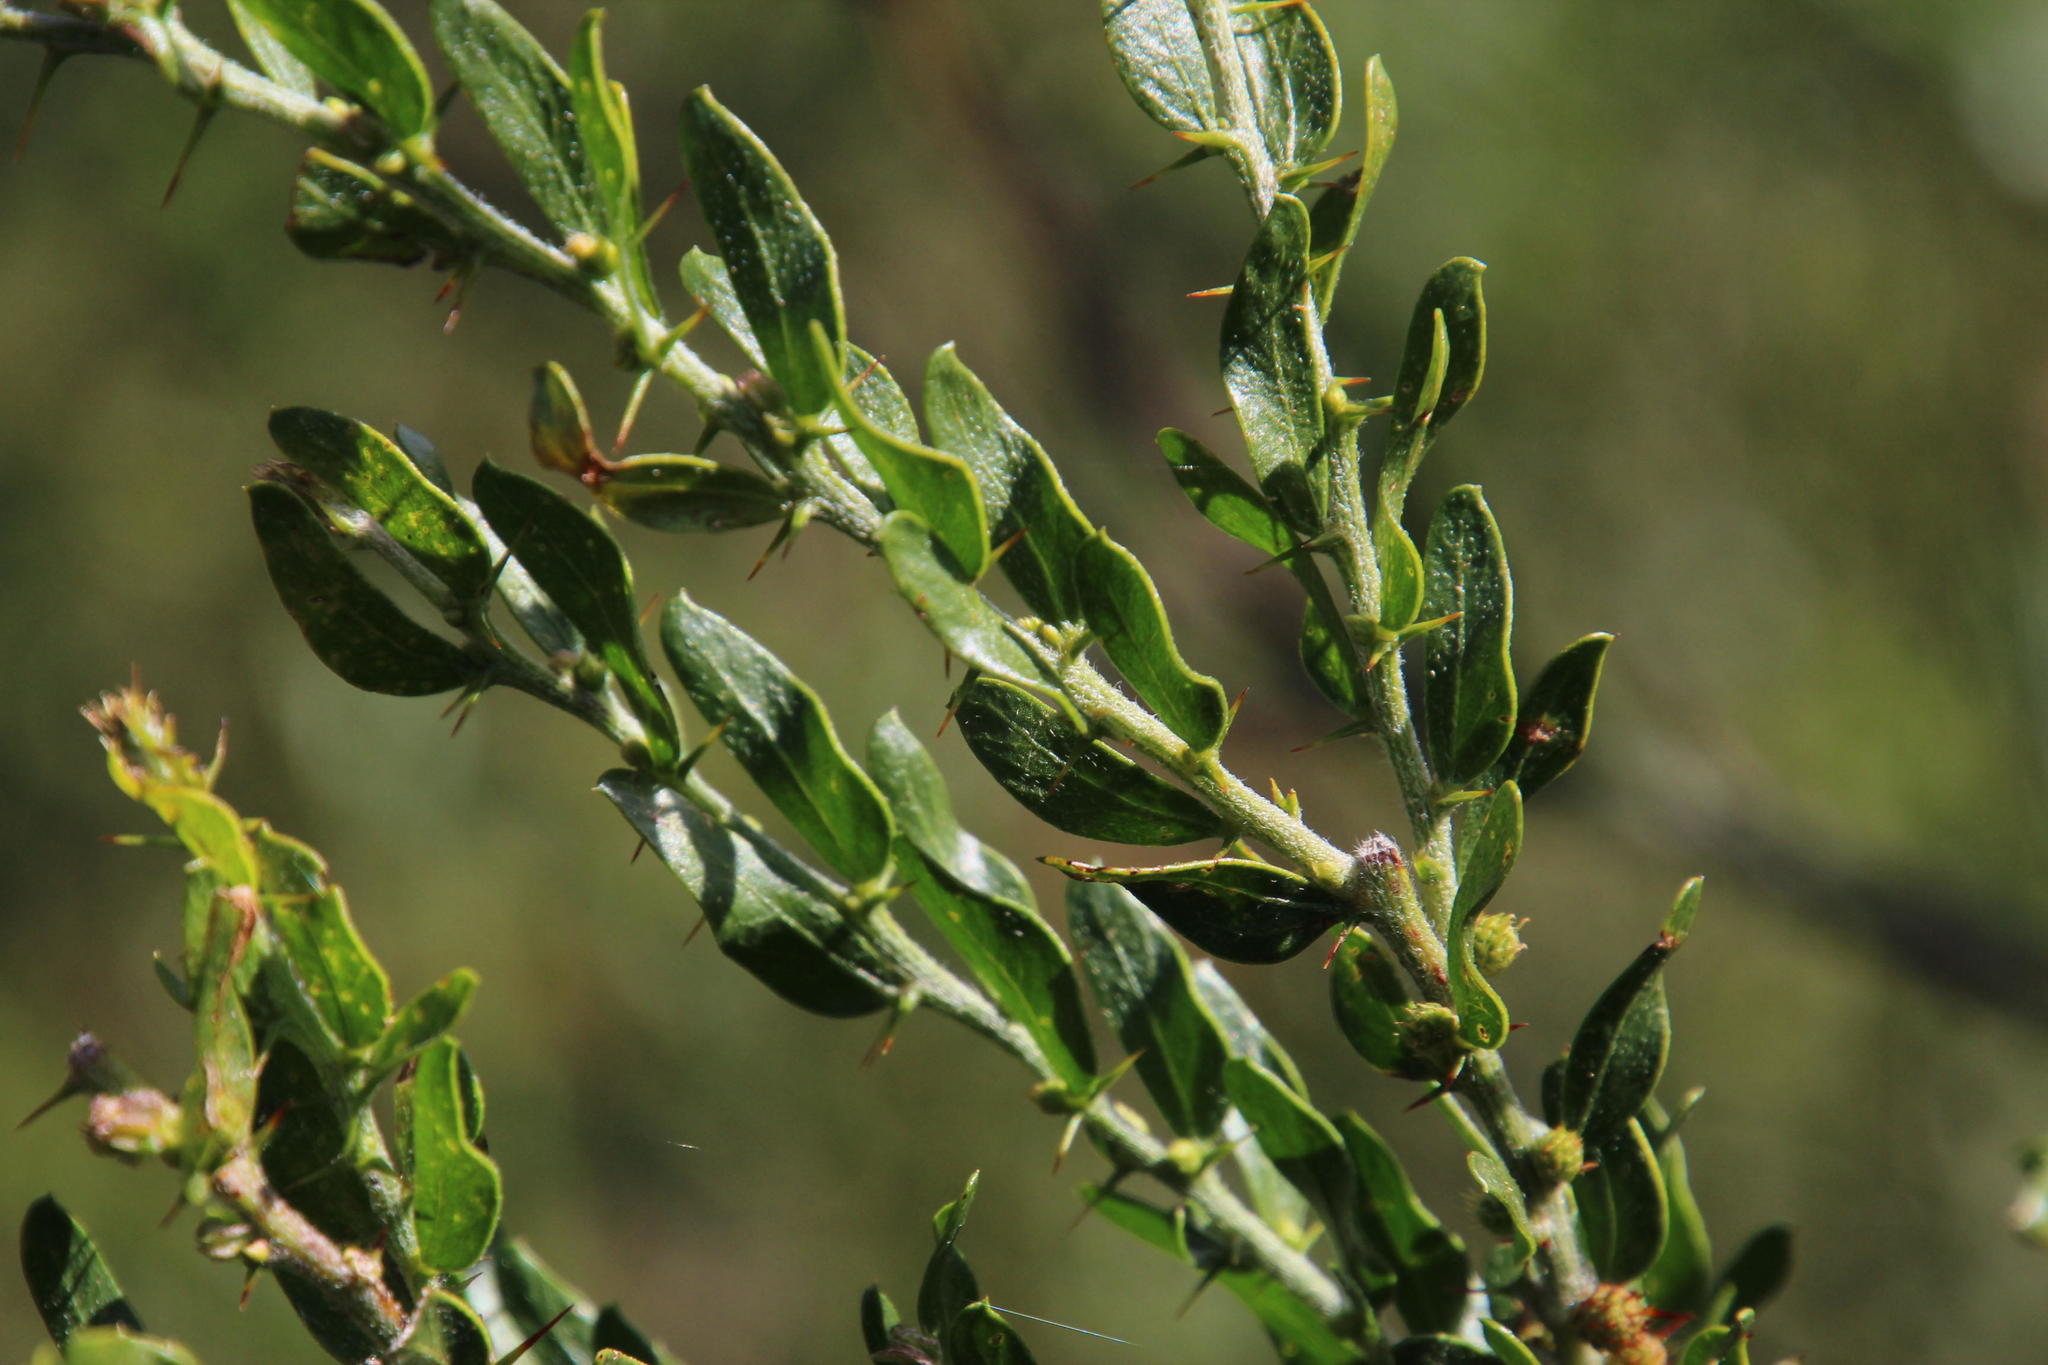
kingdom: Plantae
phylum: Tracheophyta
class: Magnoliopsida
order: Fabales
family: Fabaceae
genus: Acacia
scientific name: Acacia paradoxa
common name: Paradox acacia
